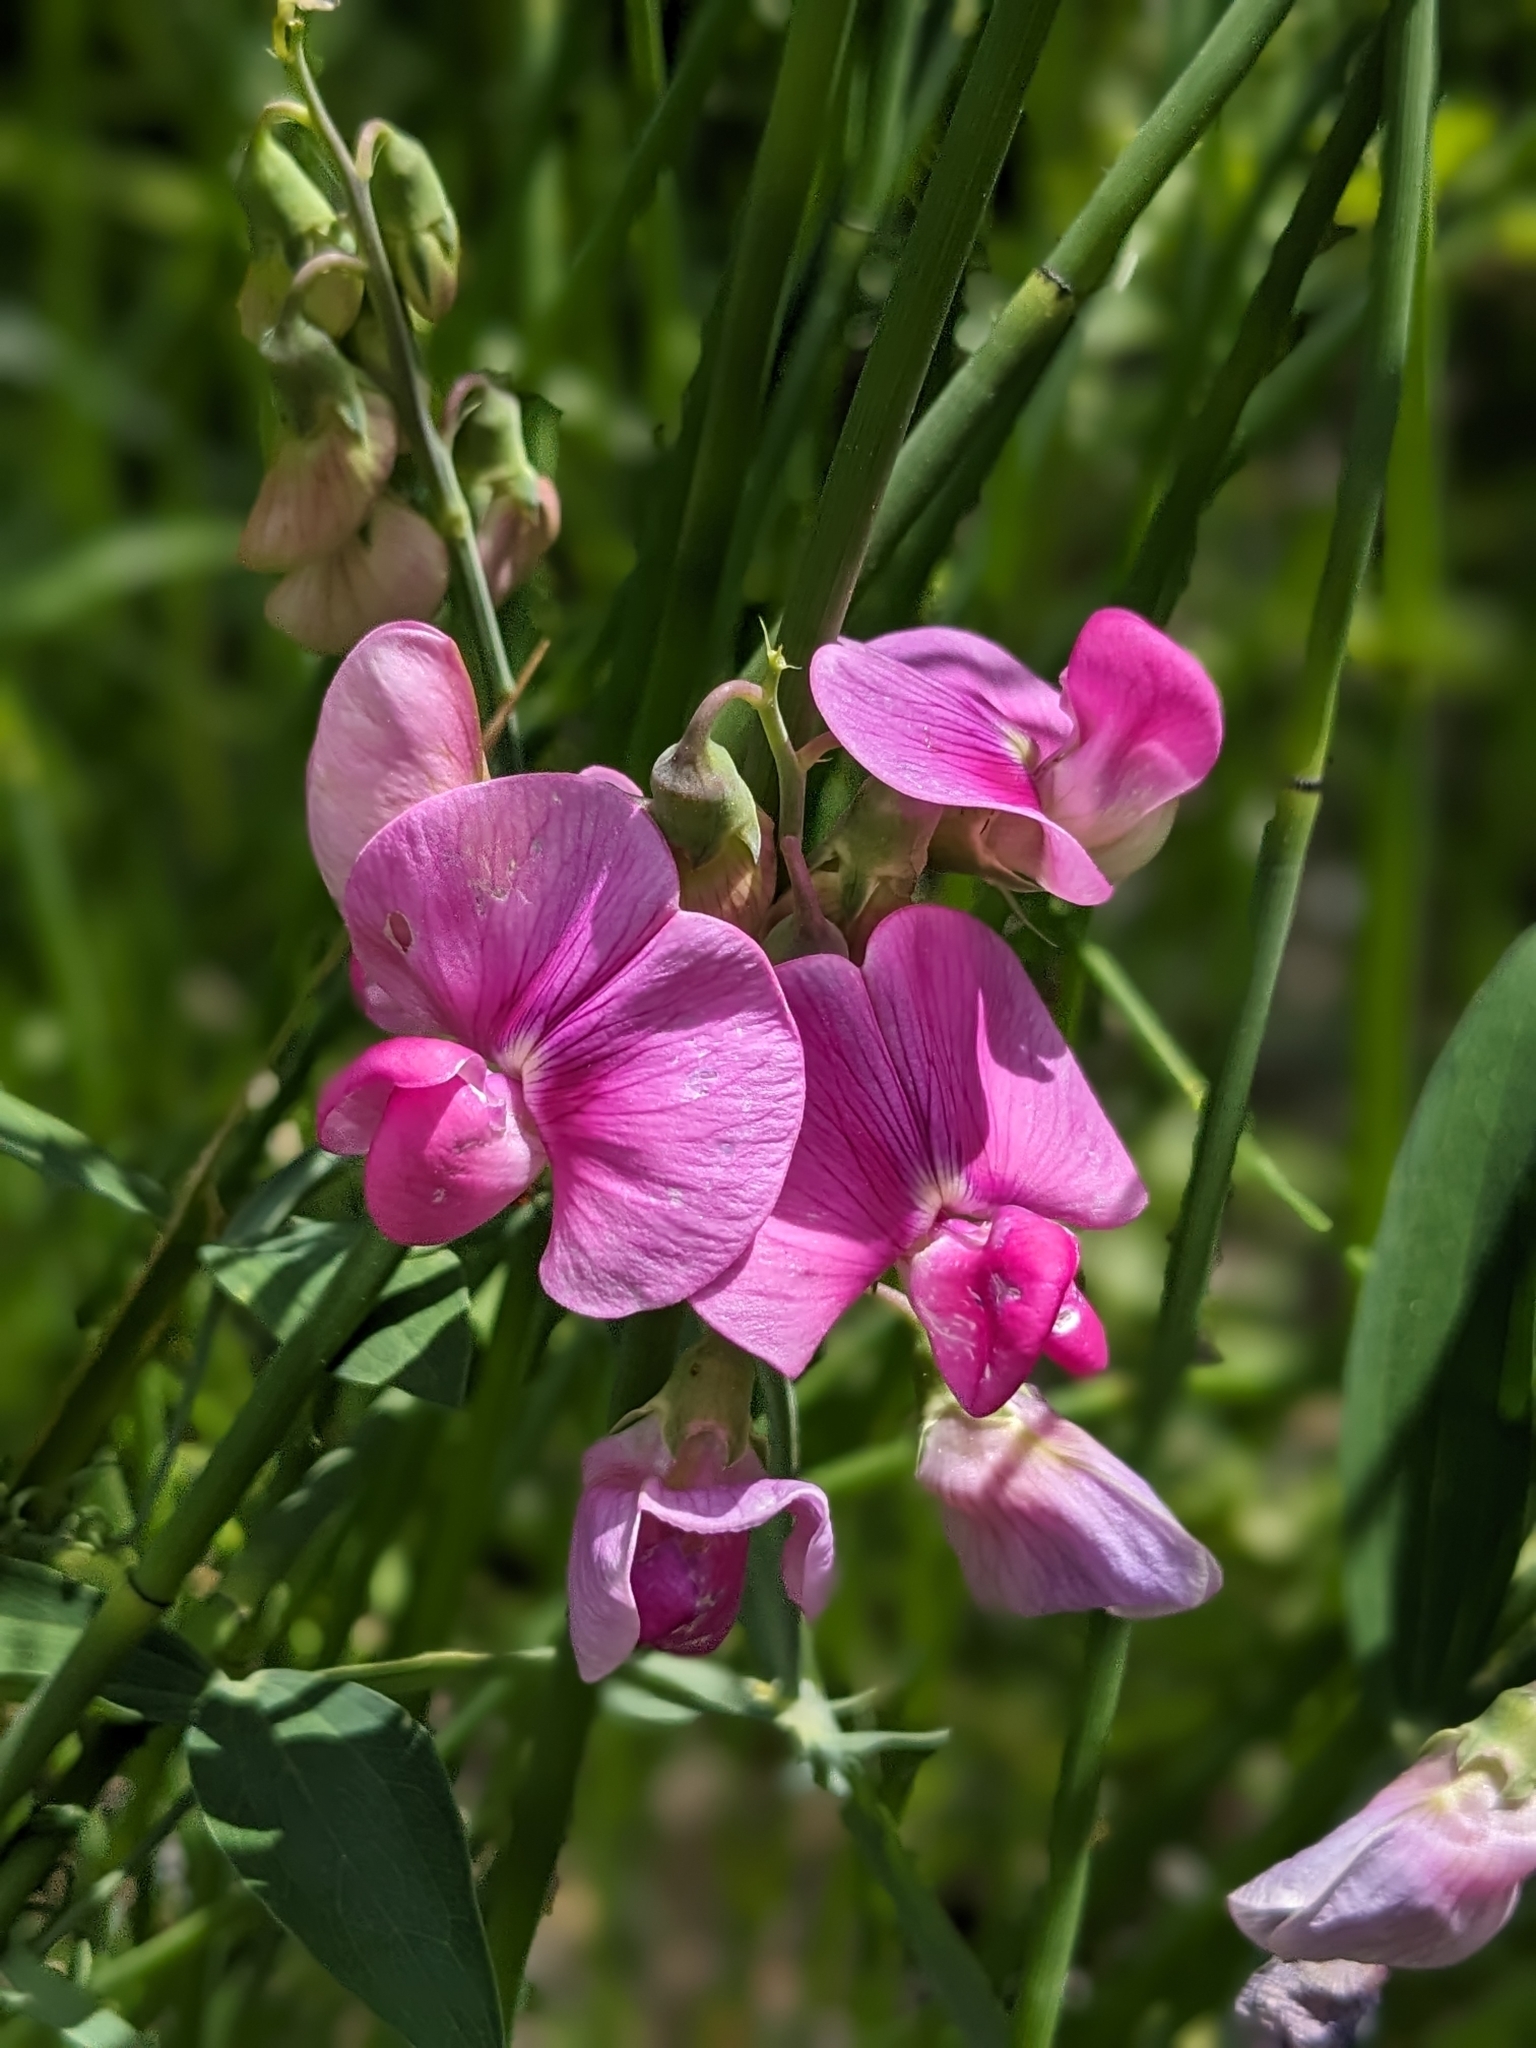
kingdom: Plantae
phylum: Tracheophyta
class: Magnoliopsida
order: Fabales
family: Fabaceae
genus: Lathyrus
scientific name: Lathyrus latifolius
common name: Perennial pea
